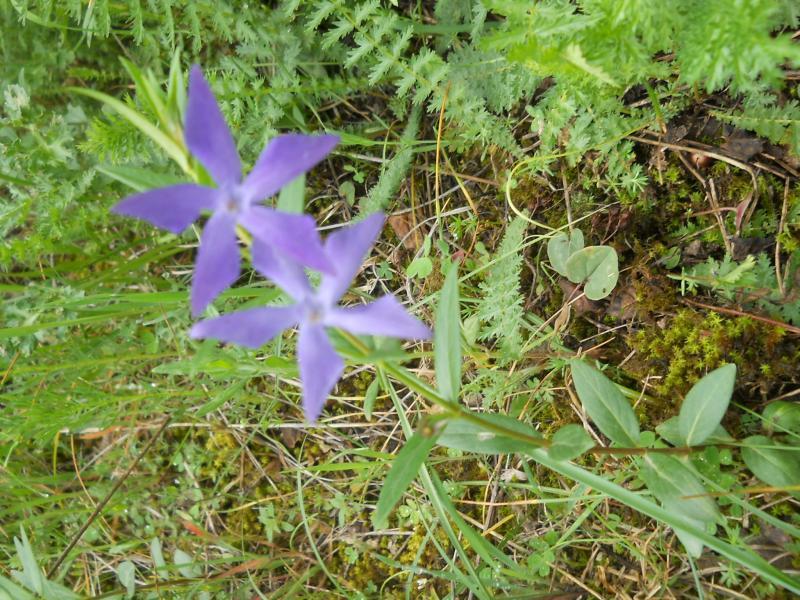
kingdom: Plantae
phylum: Tracheophyta
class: Magnoliopsida
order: Gentianales
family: Apocynaceae
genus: Vinca
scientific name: Vinca herbacea
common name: Herbaceous periwinkle
